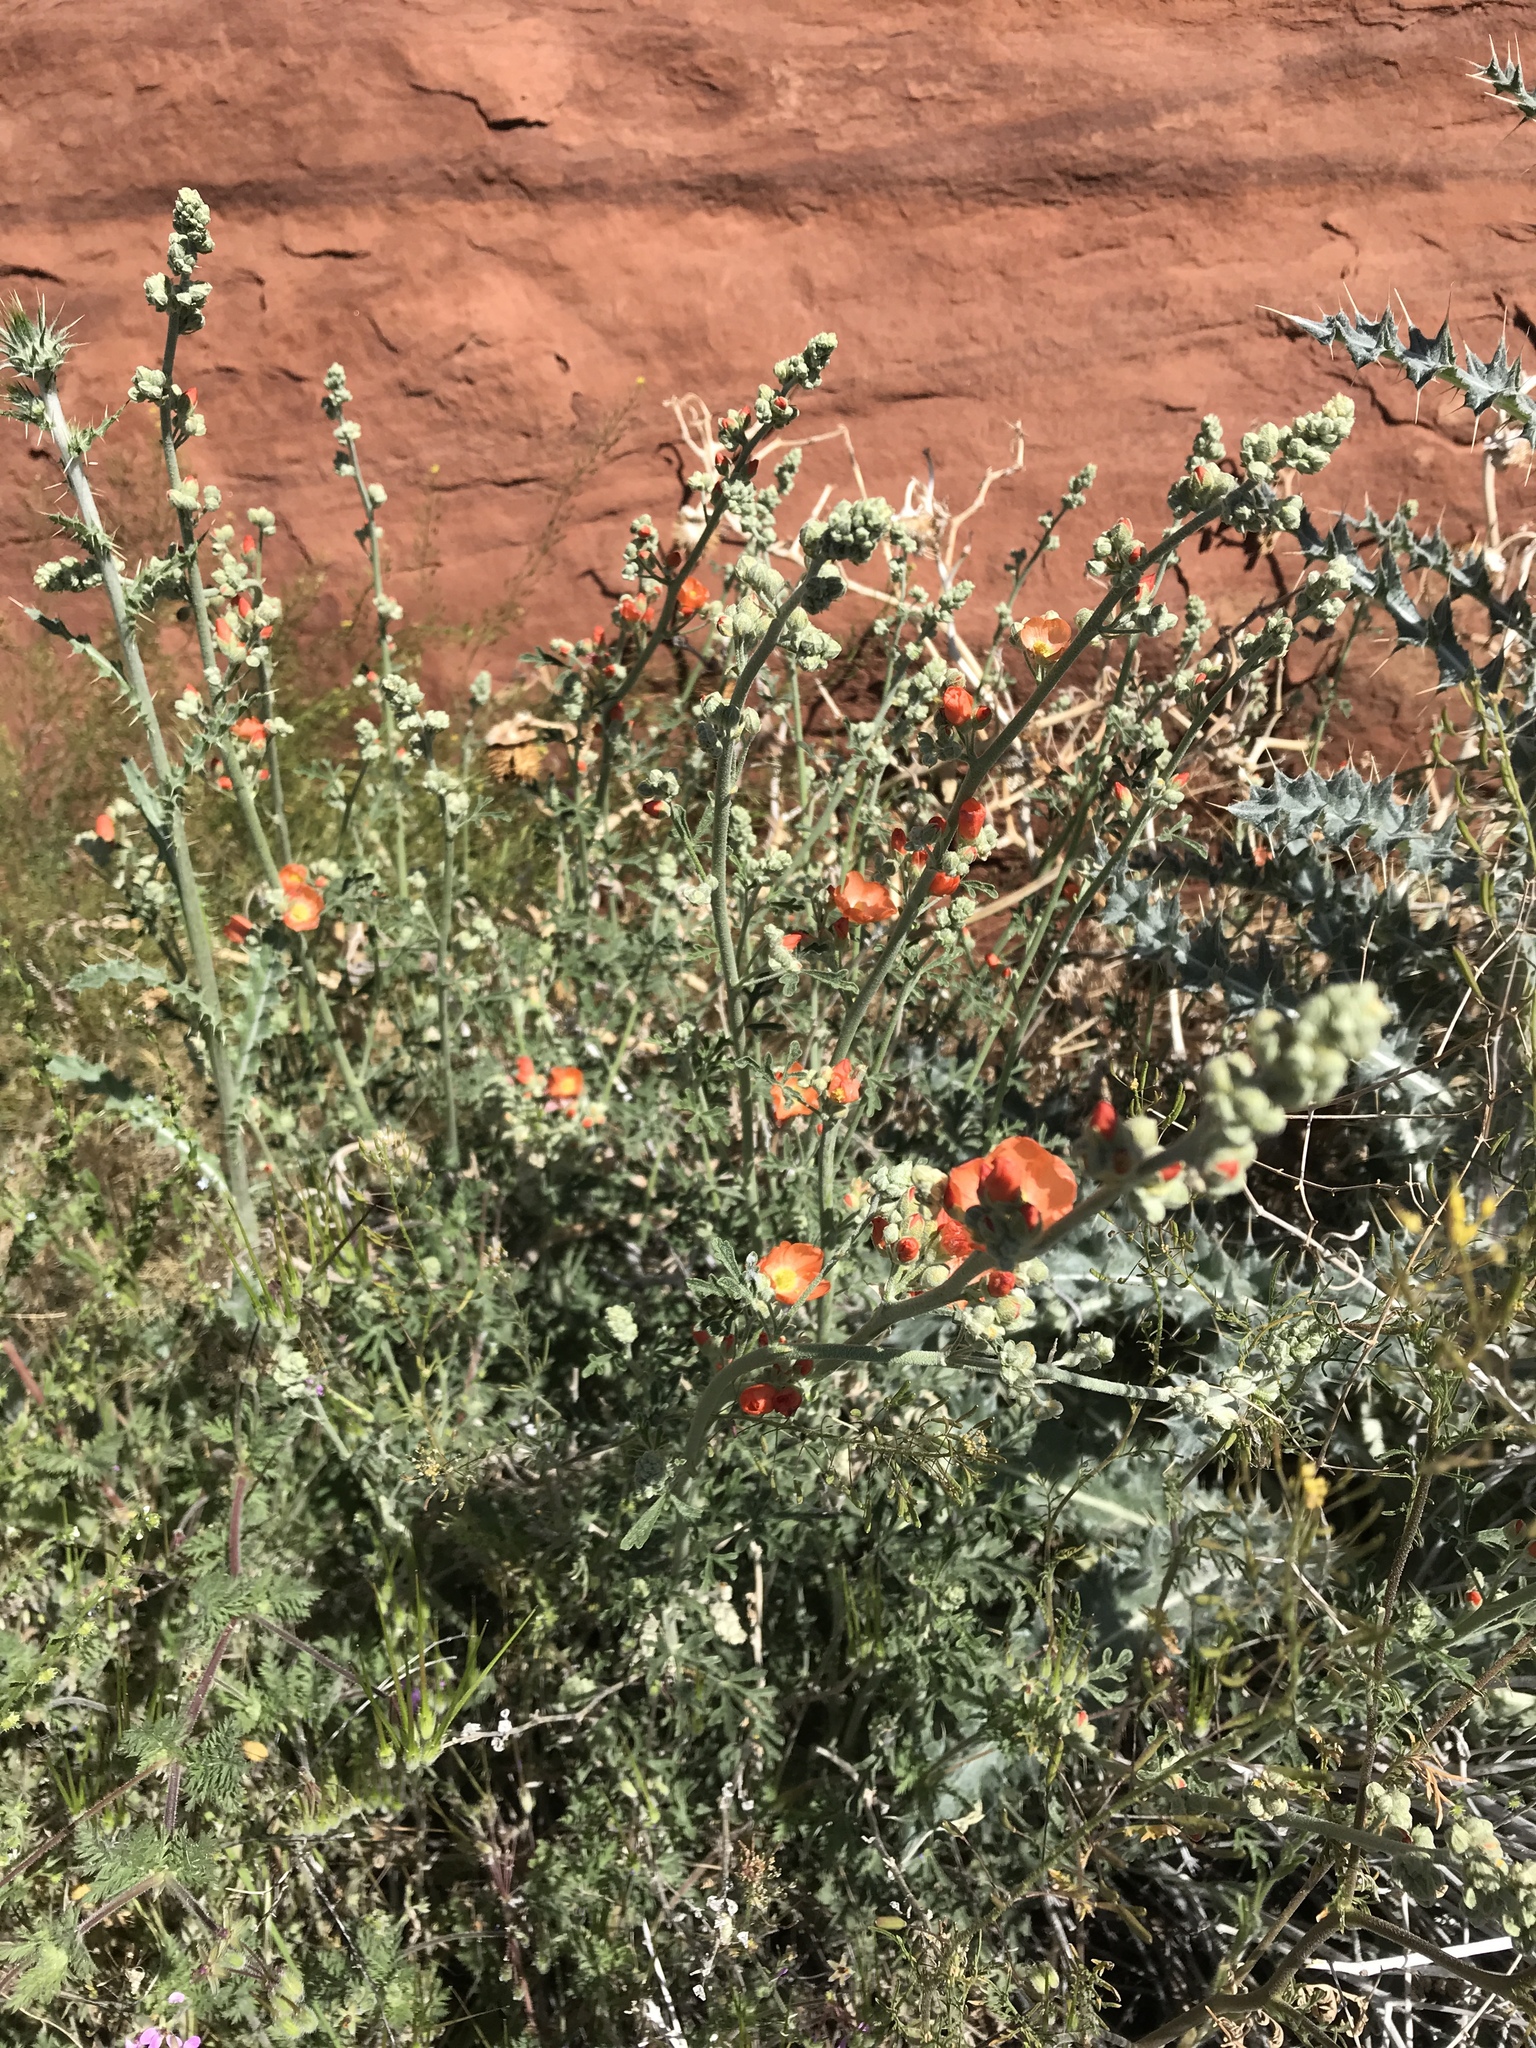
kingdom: Plantae
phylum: Tracheophyta
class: Magnoliopsida
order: Malvales
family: Malvaceae
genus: Sphaeralcea
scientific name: Sphaeralcea coccinea
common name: Moss-rose
